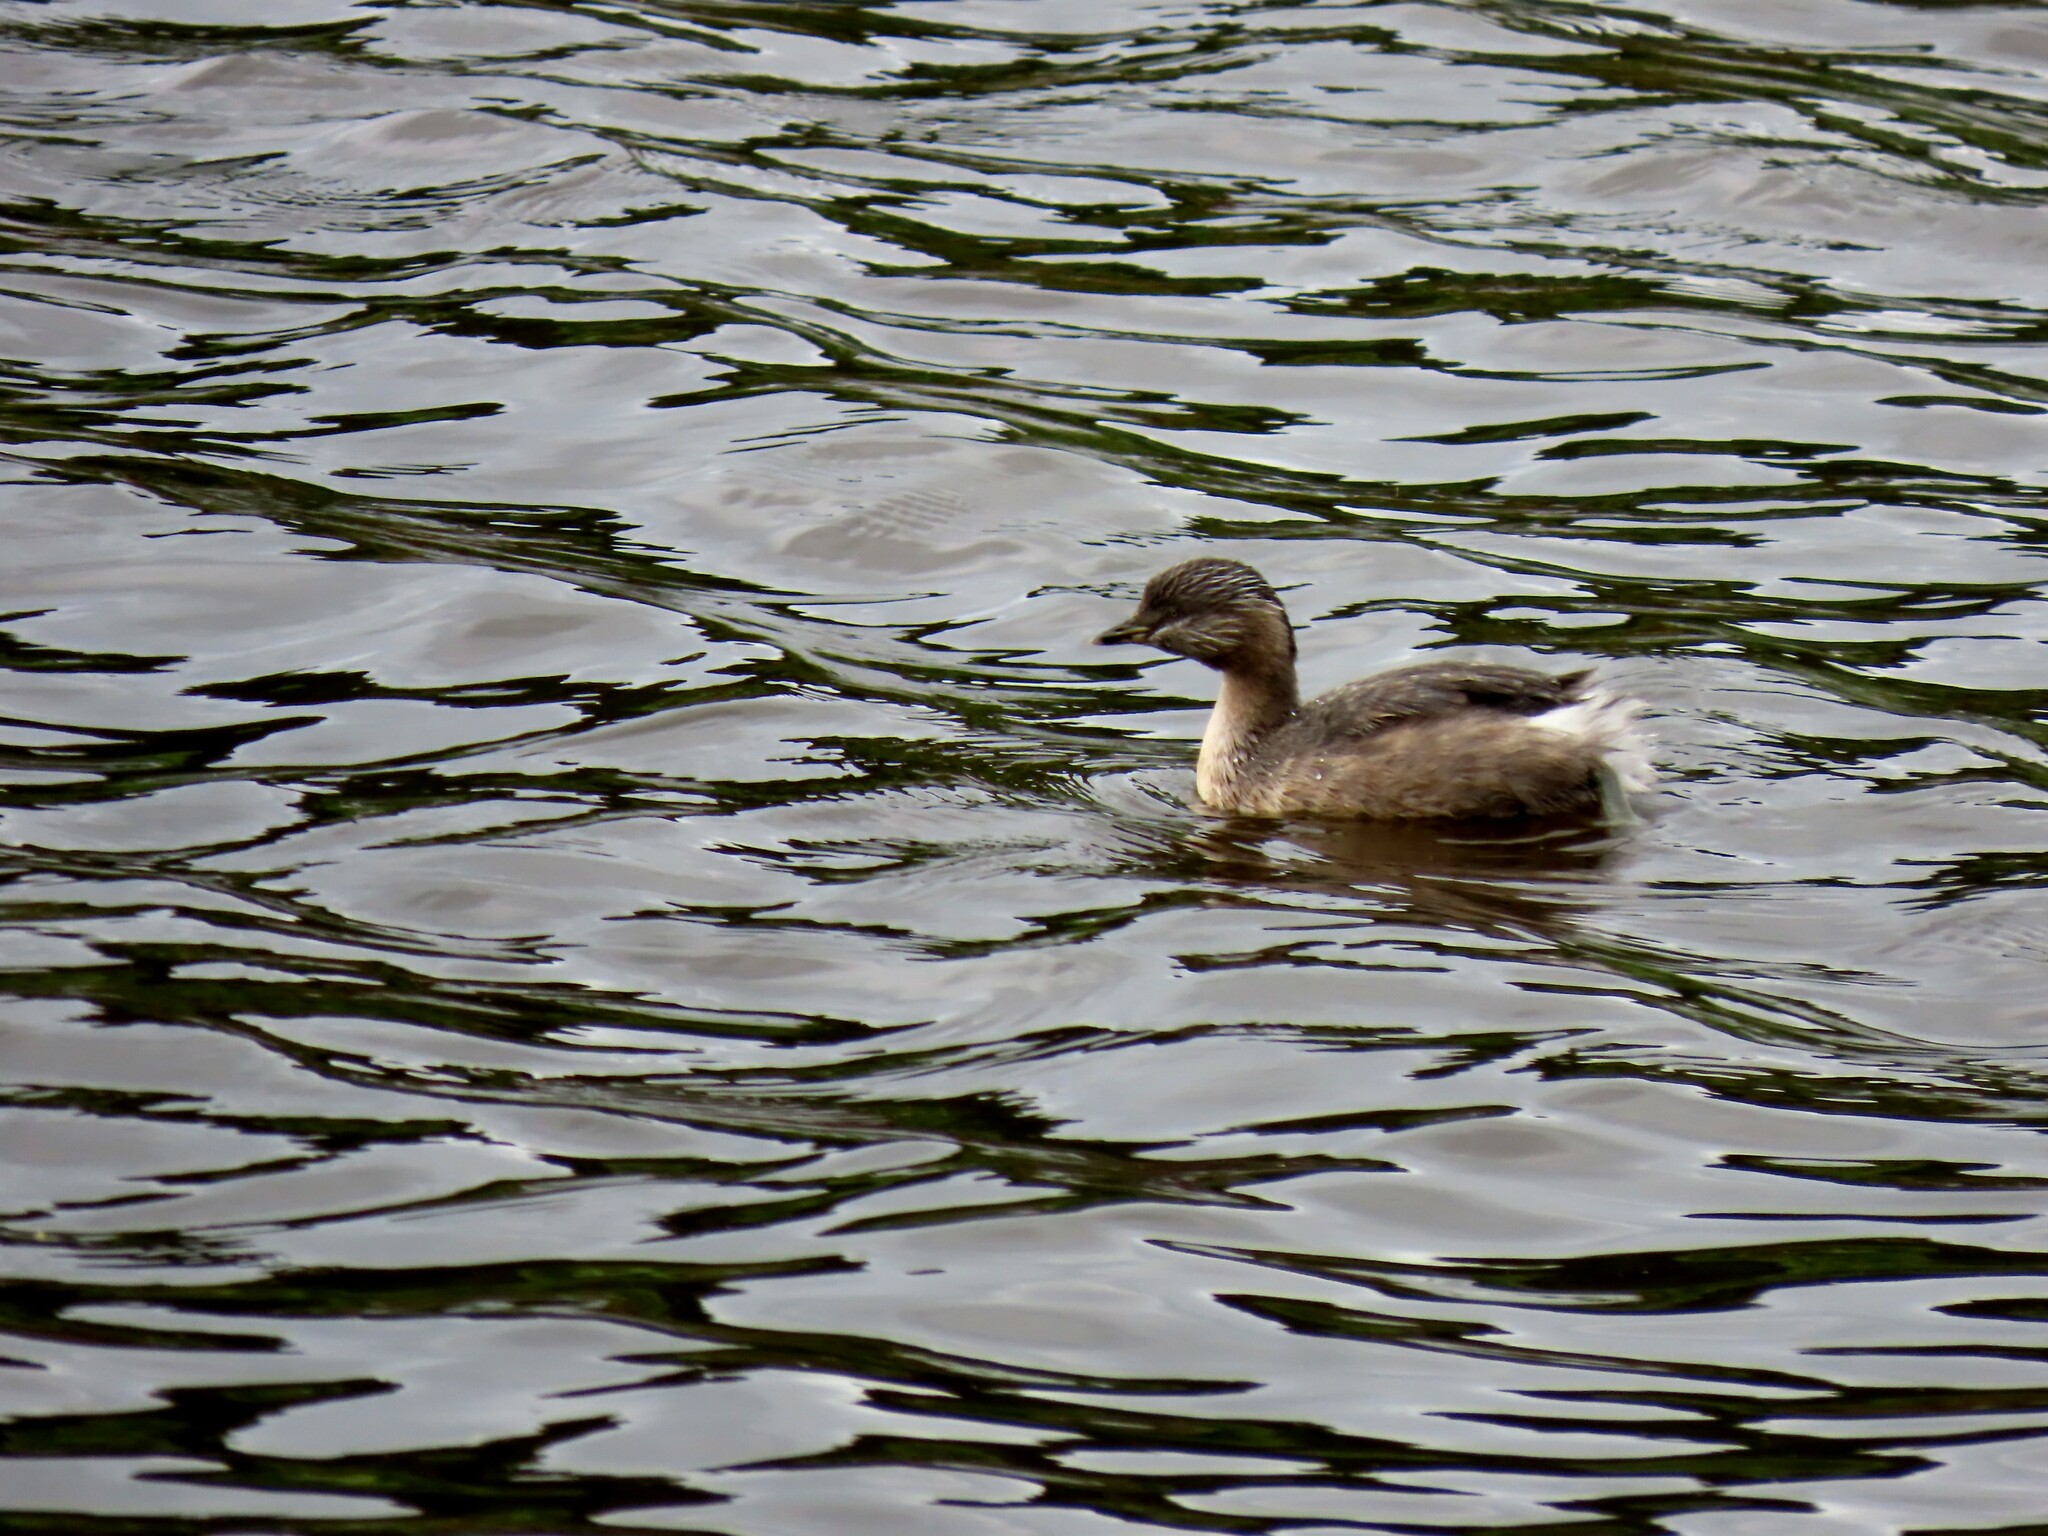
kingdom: Animalia
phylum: Chordata
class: Aves
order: Podicipediformes
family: Podicipedidae
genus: Poliocephalus
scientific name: Poliocephalus poliocephalus
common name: Hoary-headed grebe
